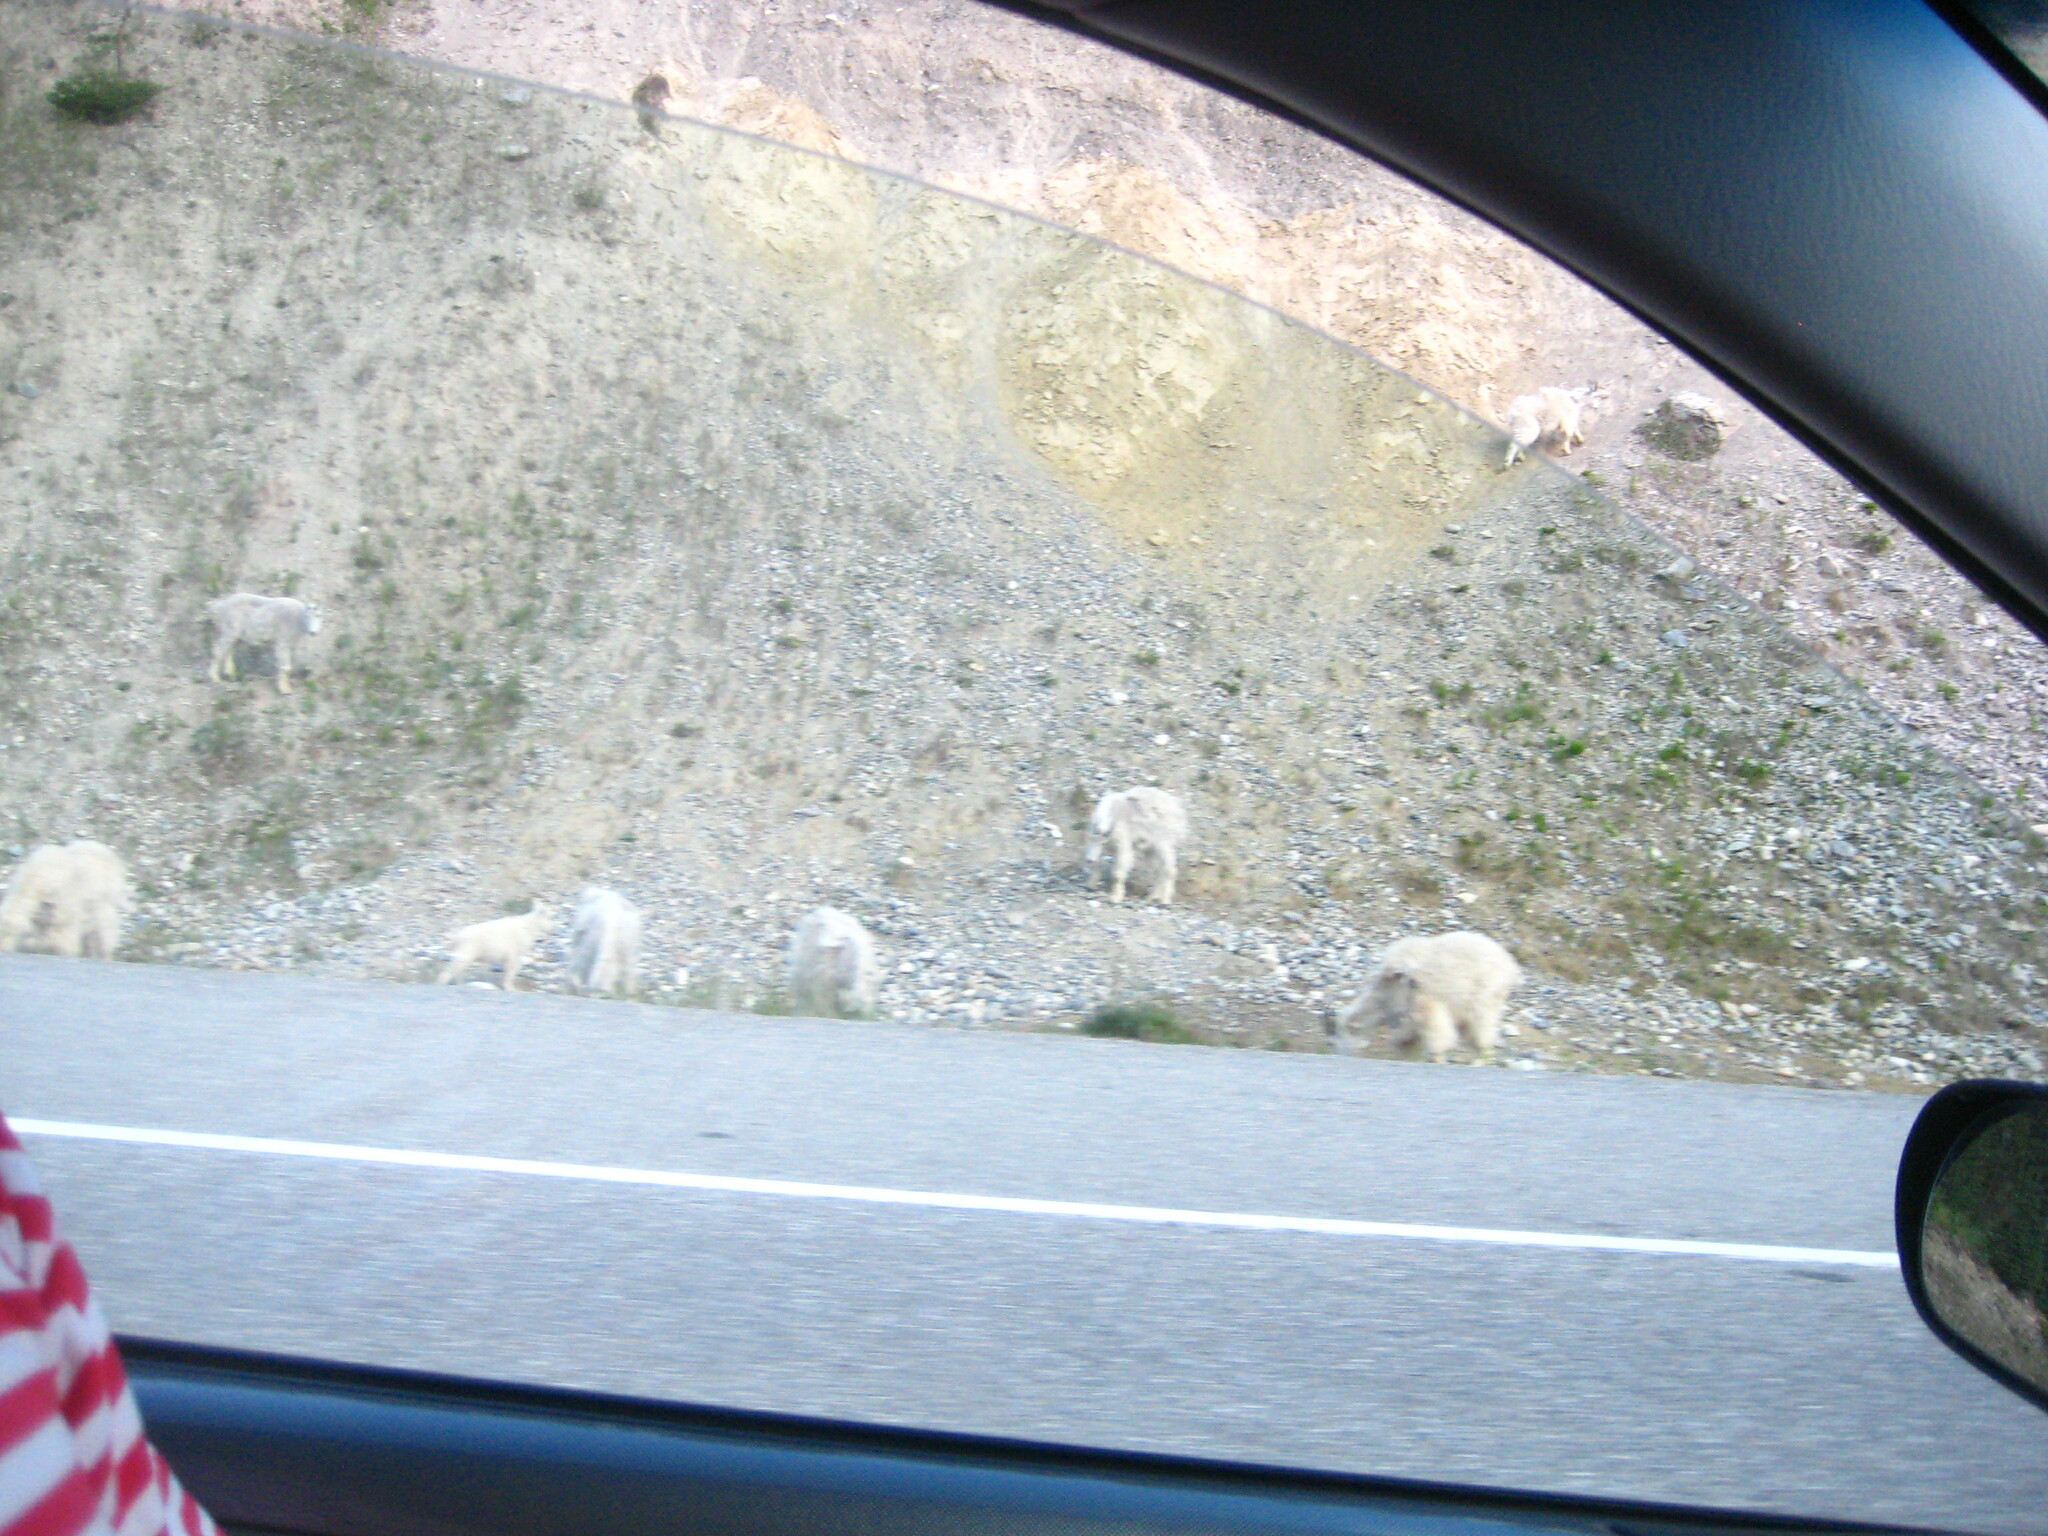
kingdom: Animalia
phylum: Chordata
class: Mammalia
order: Artiodactyla
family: Bovidae
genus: Oreamnos
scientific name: Oreamnos americanus
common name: Mountain goat
